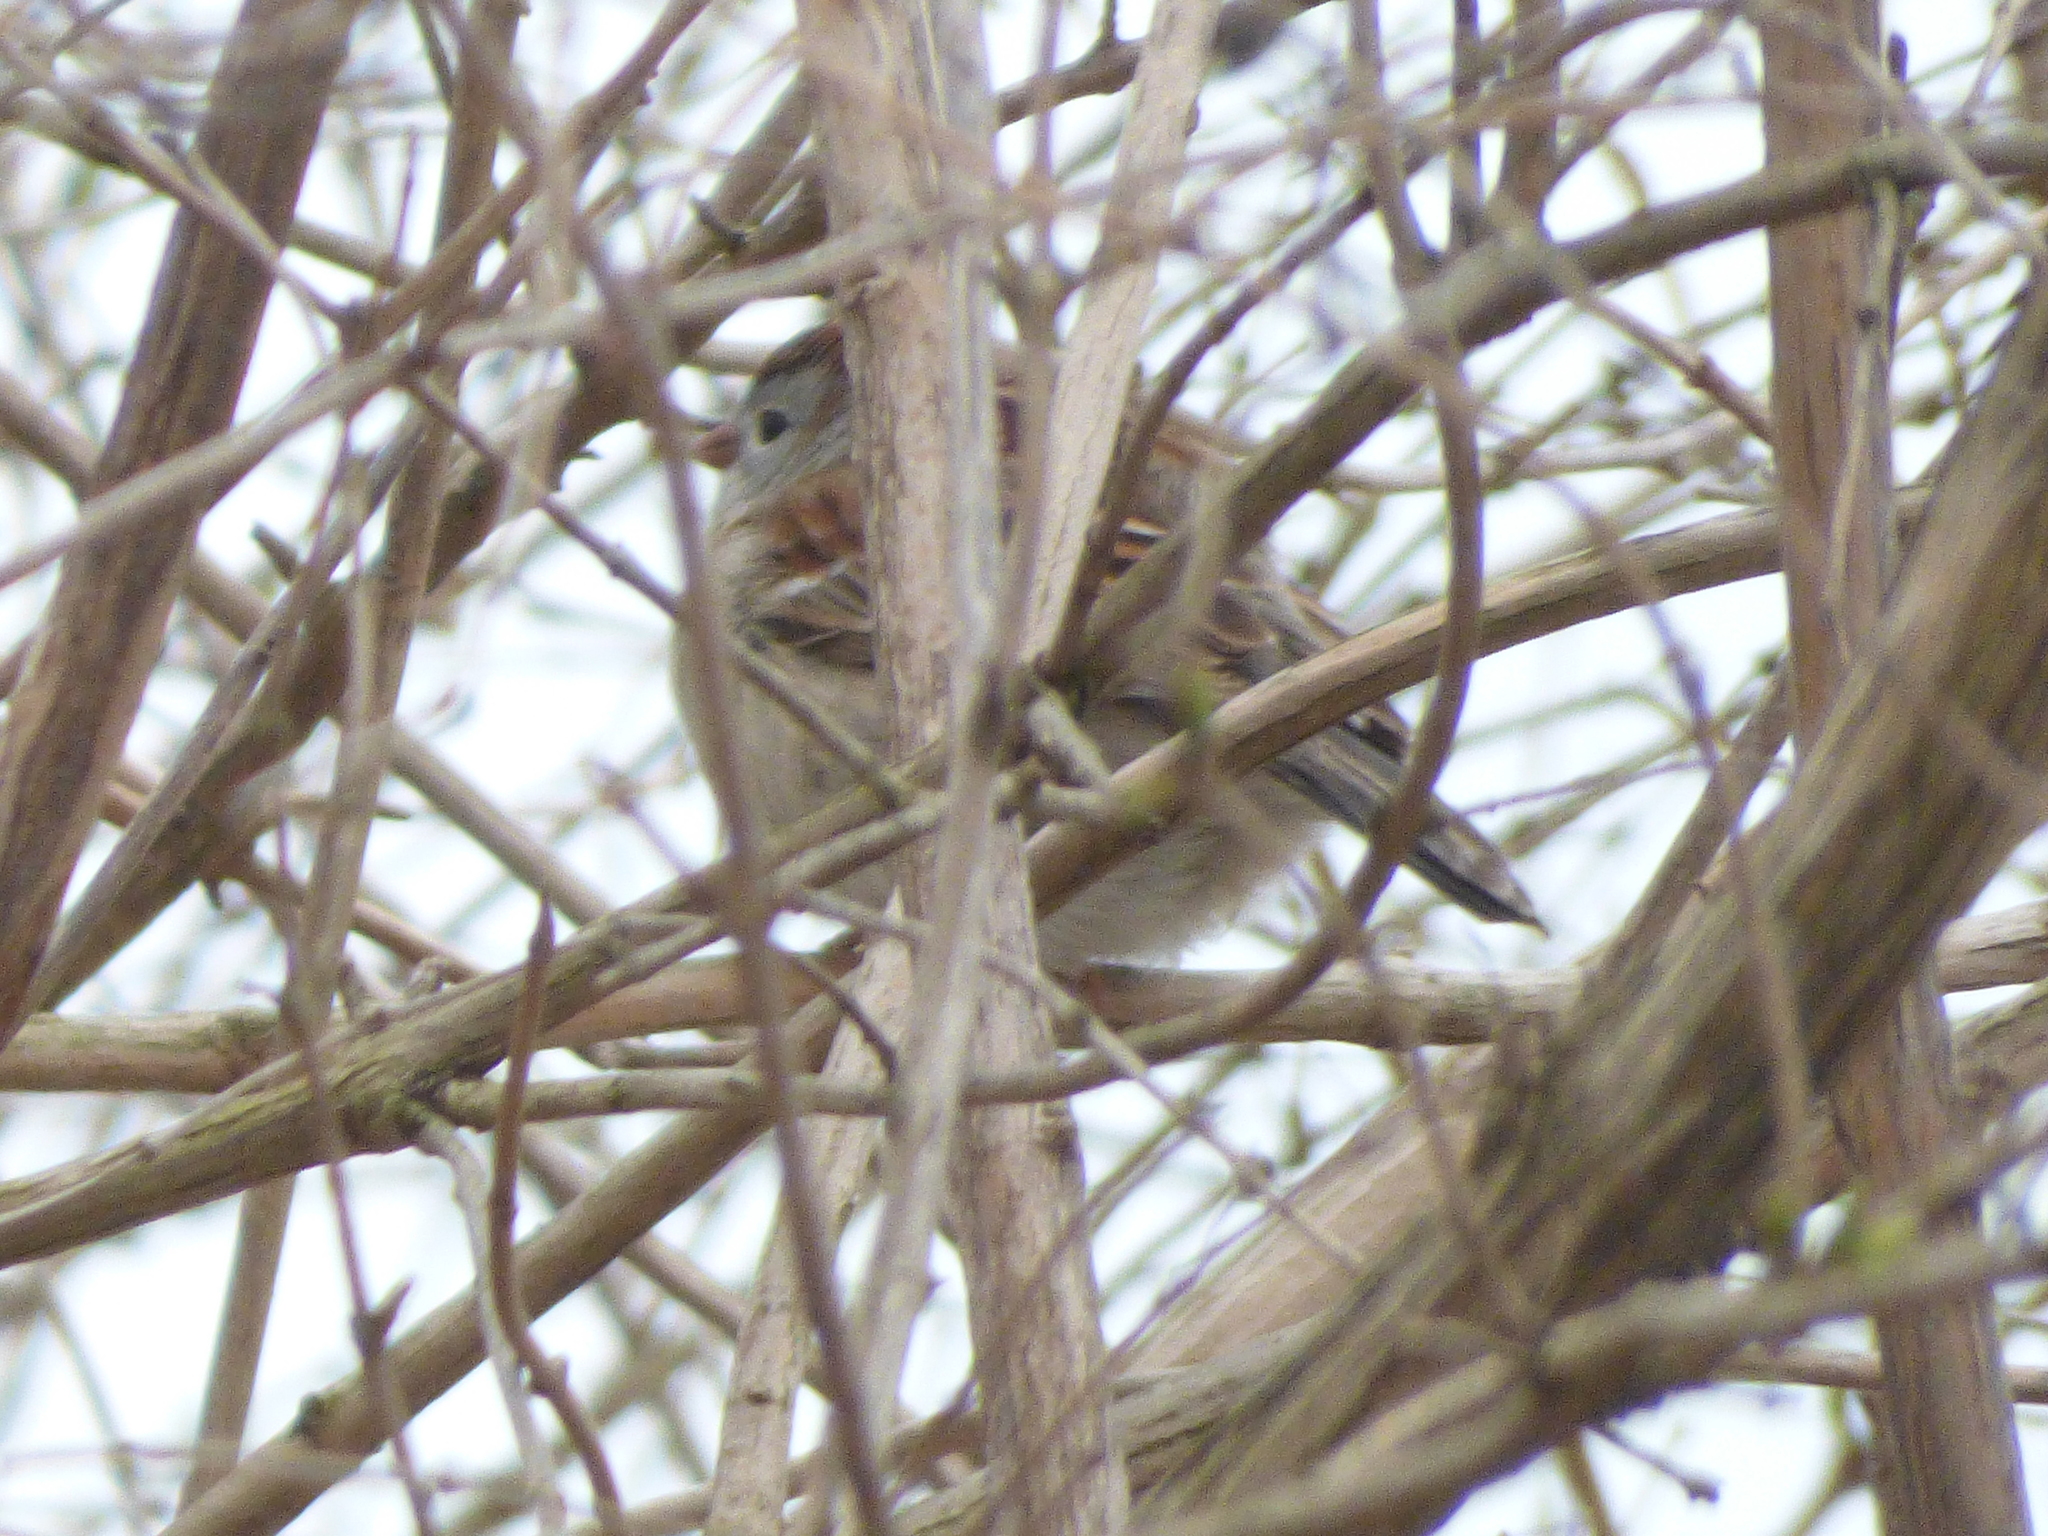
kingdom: Animalia
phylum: Chordata
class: Aves
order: Passeriformes
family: Passerellidae
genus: Spizella
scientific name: Spizella pusilla
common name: Field sparrow
